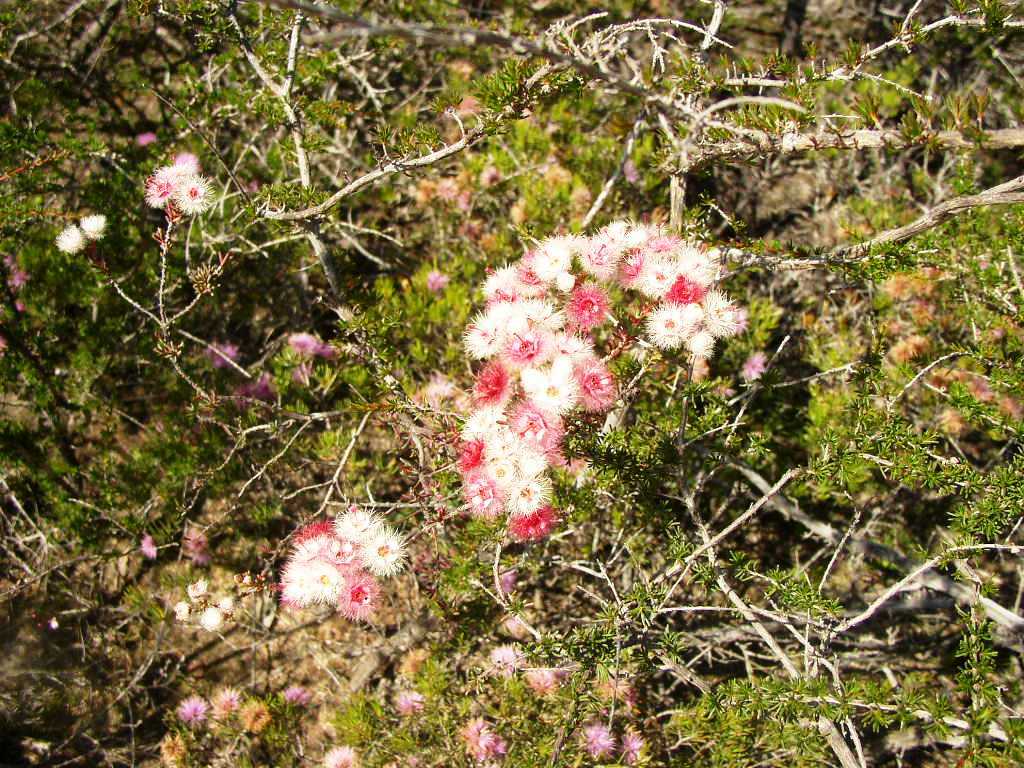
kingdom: Plantae
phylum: Tracheophyta
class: Magnoliopsida
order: Myrtales
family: Myrtaceae
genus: Verticordia
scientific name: Verticordia huegelii
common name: Variegate feather-flower
